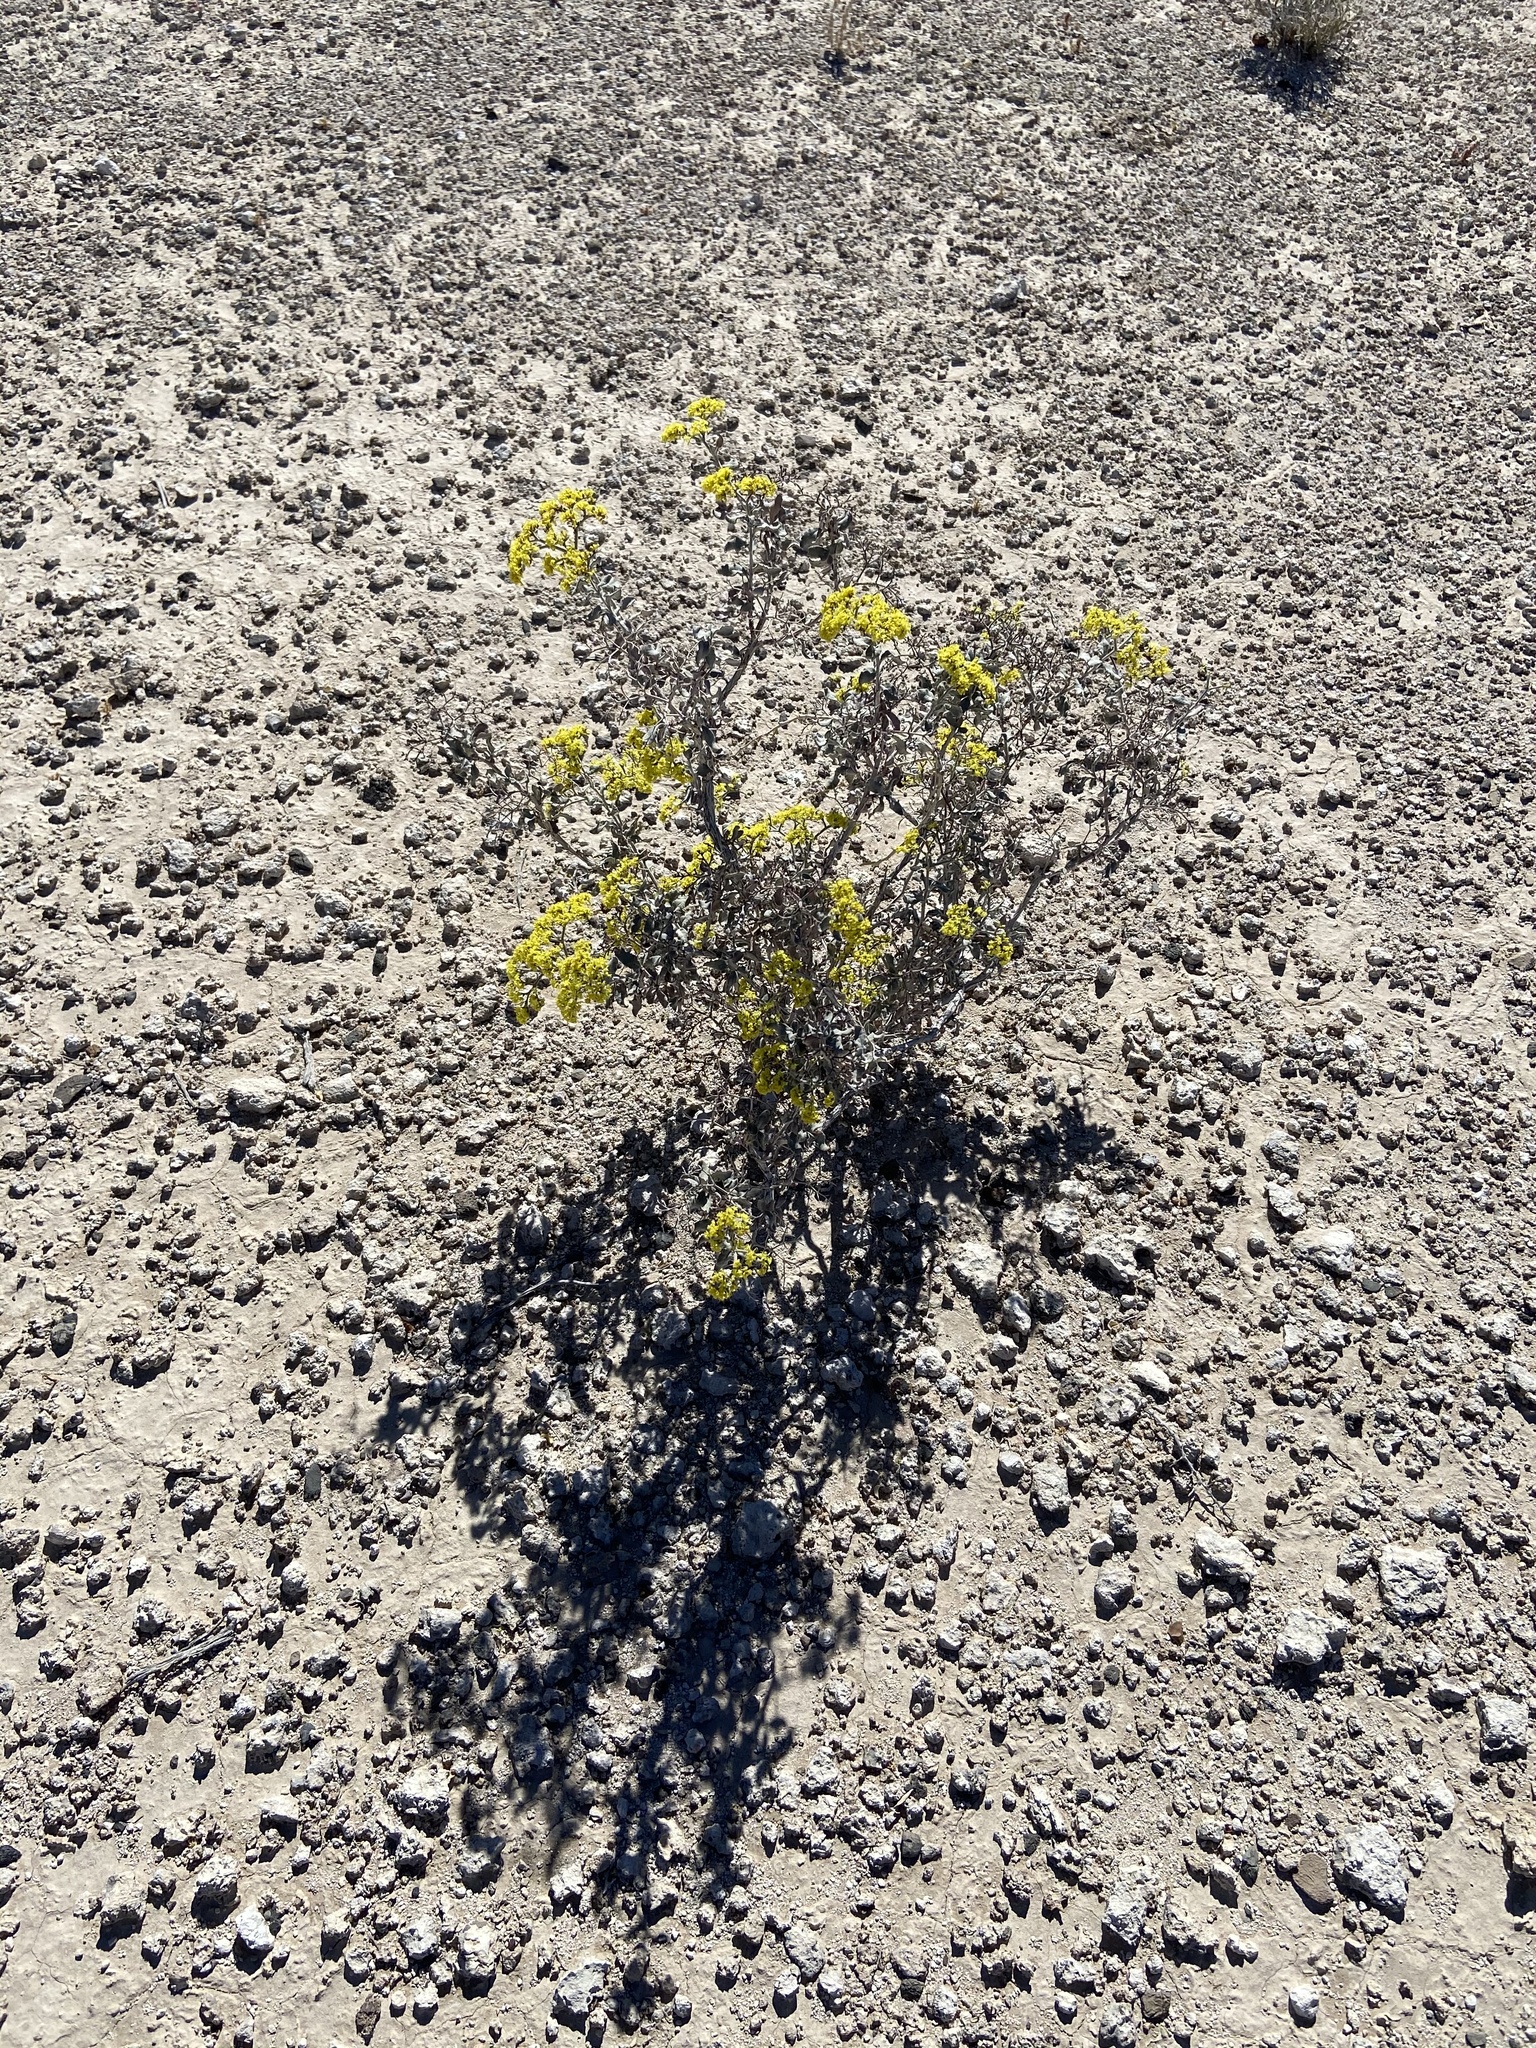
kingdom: Plantae
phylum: Tracheophyta
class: Magnoliopsida
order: Caryophyllales
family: Polygonaceae
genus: Eriogonum
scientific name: Eriogonum corymbosum
